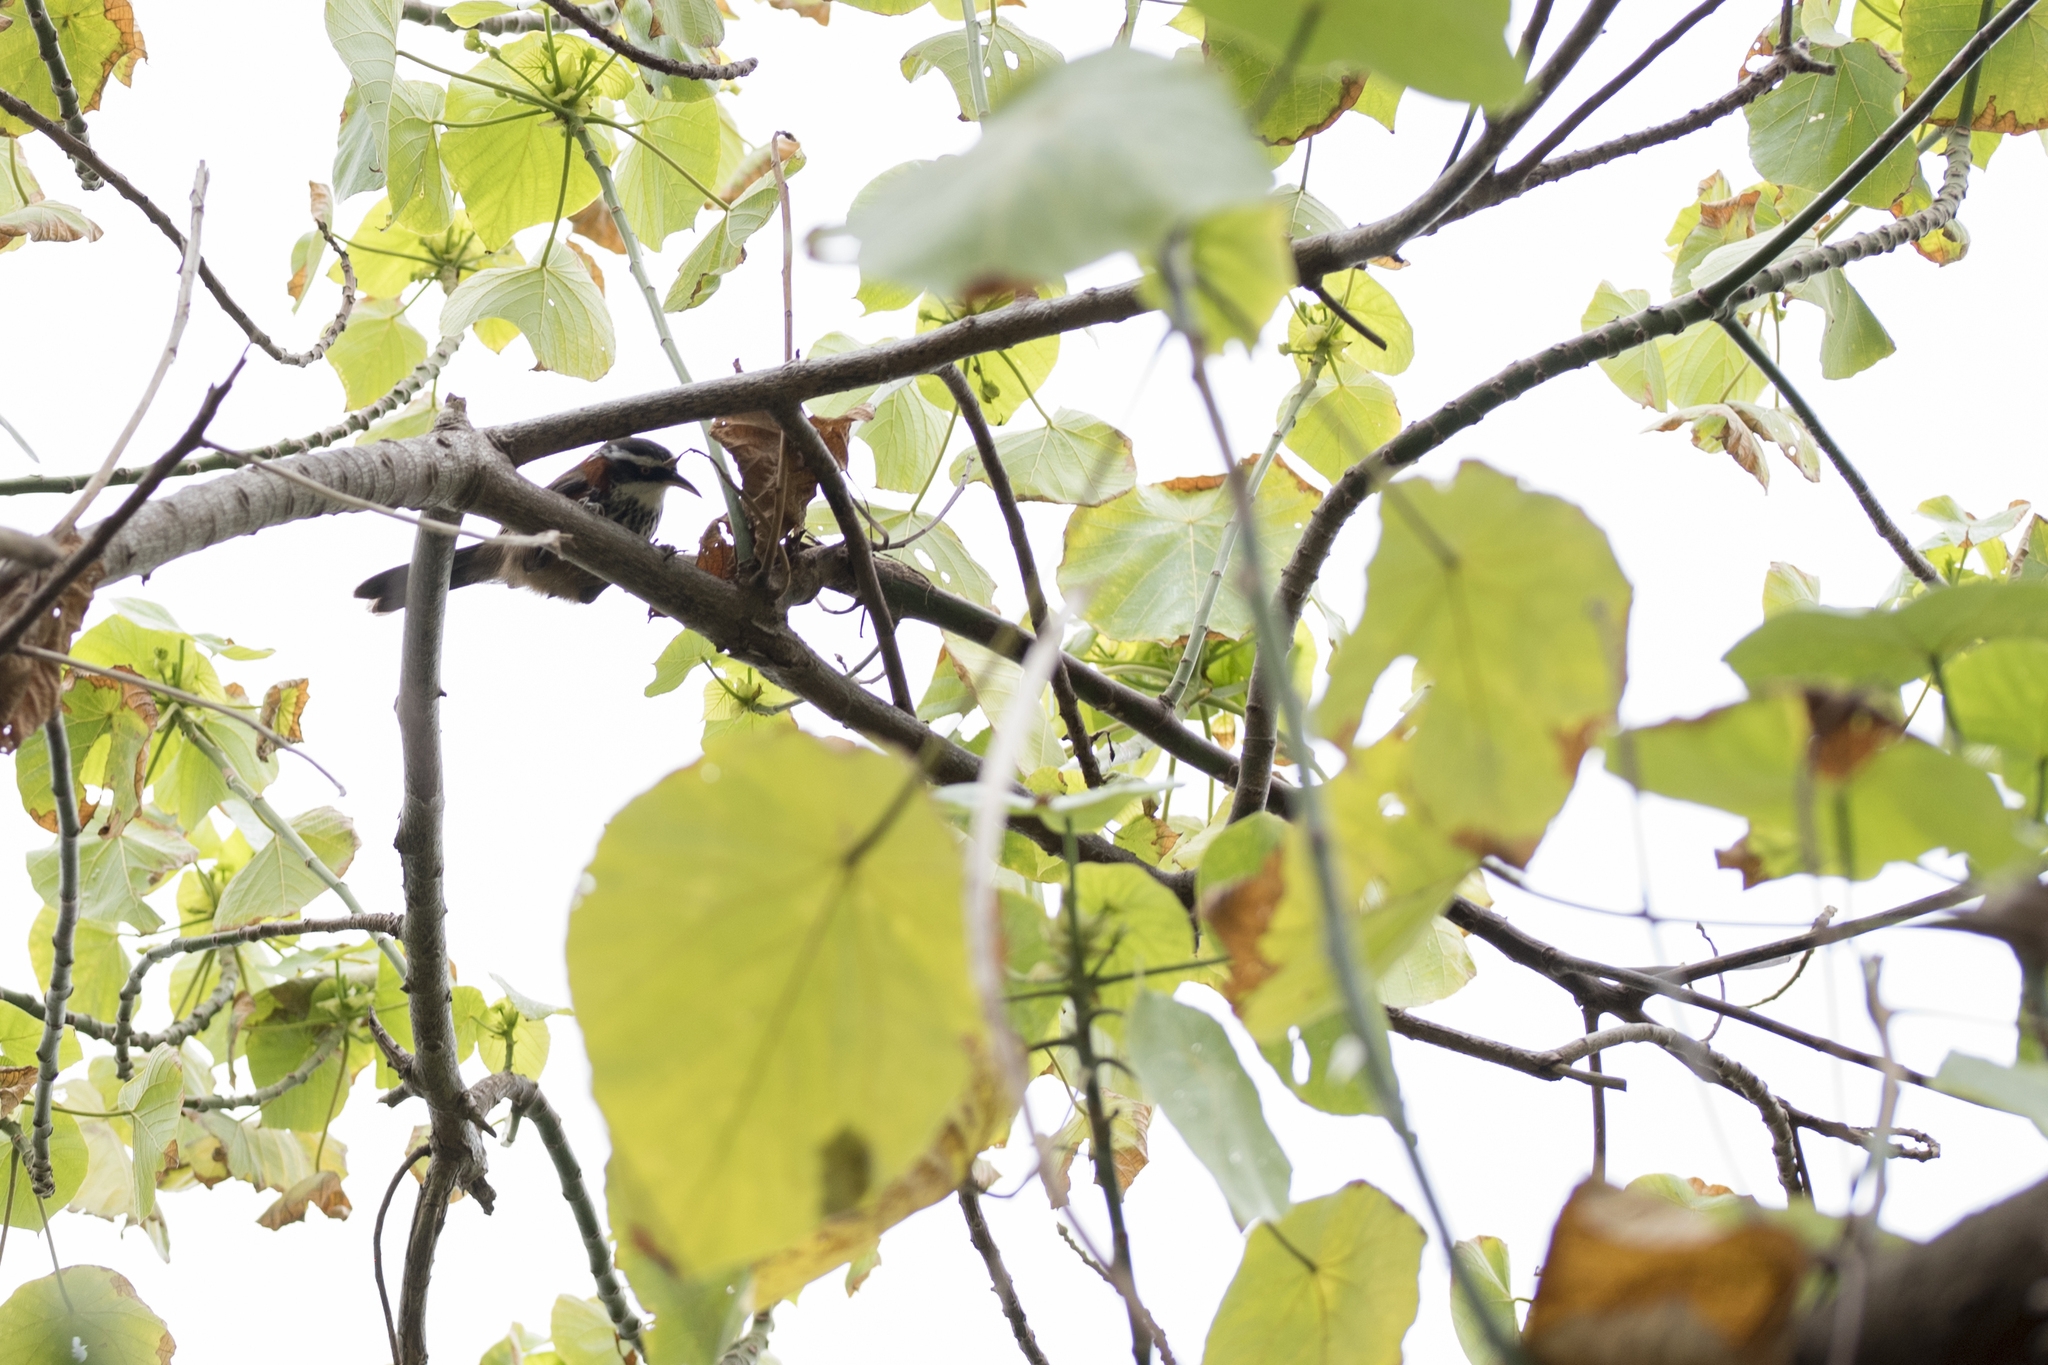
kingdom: Animalia
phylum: Chordata
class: Aves
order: Passeriformes
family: Timaliidae
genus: Pomatorhinus
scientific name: Pomatorhinus musicus
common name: Taiwan scimitar-babbler
